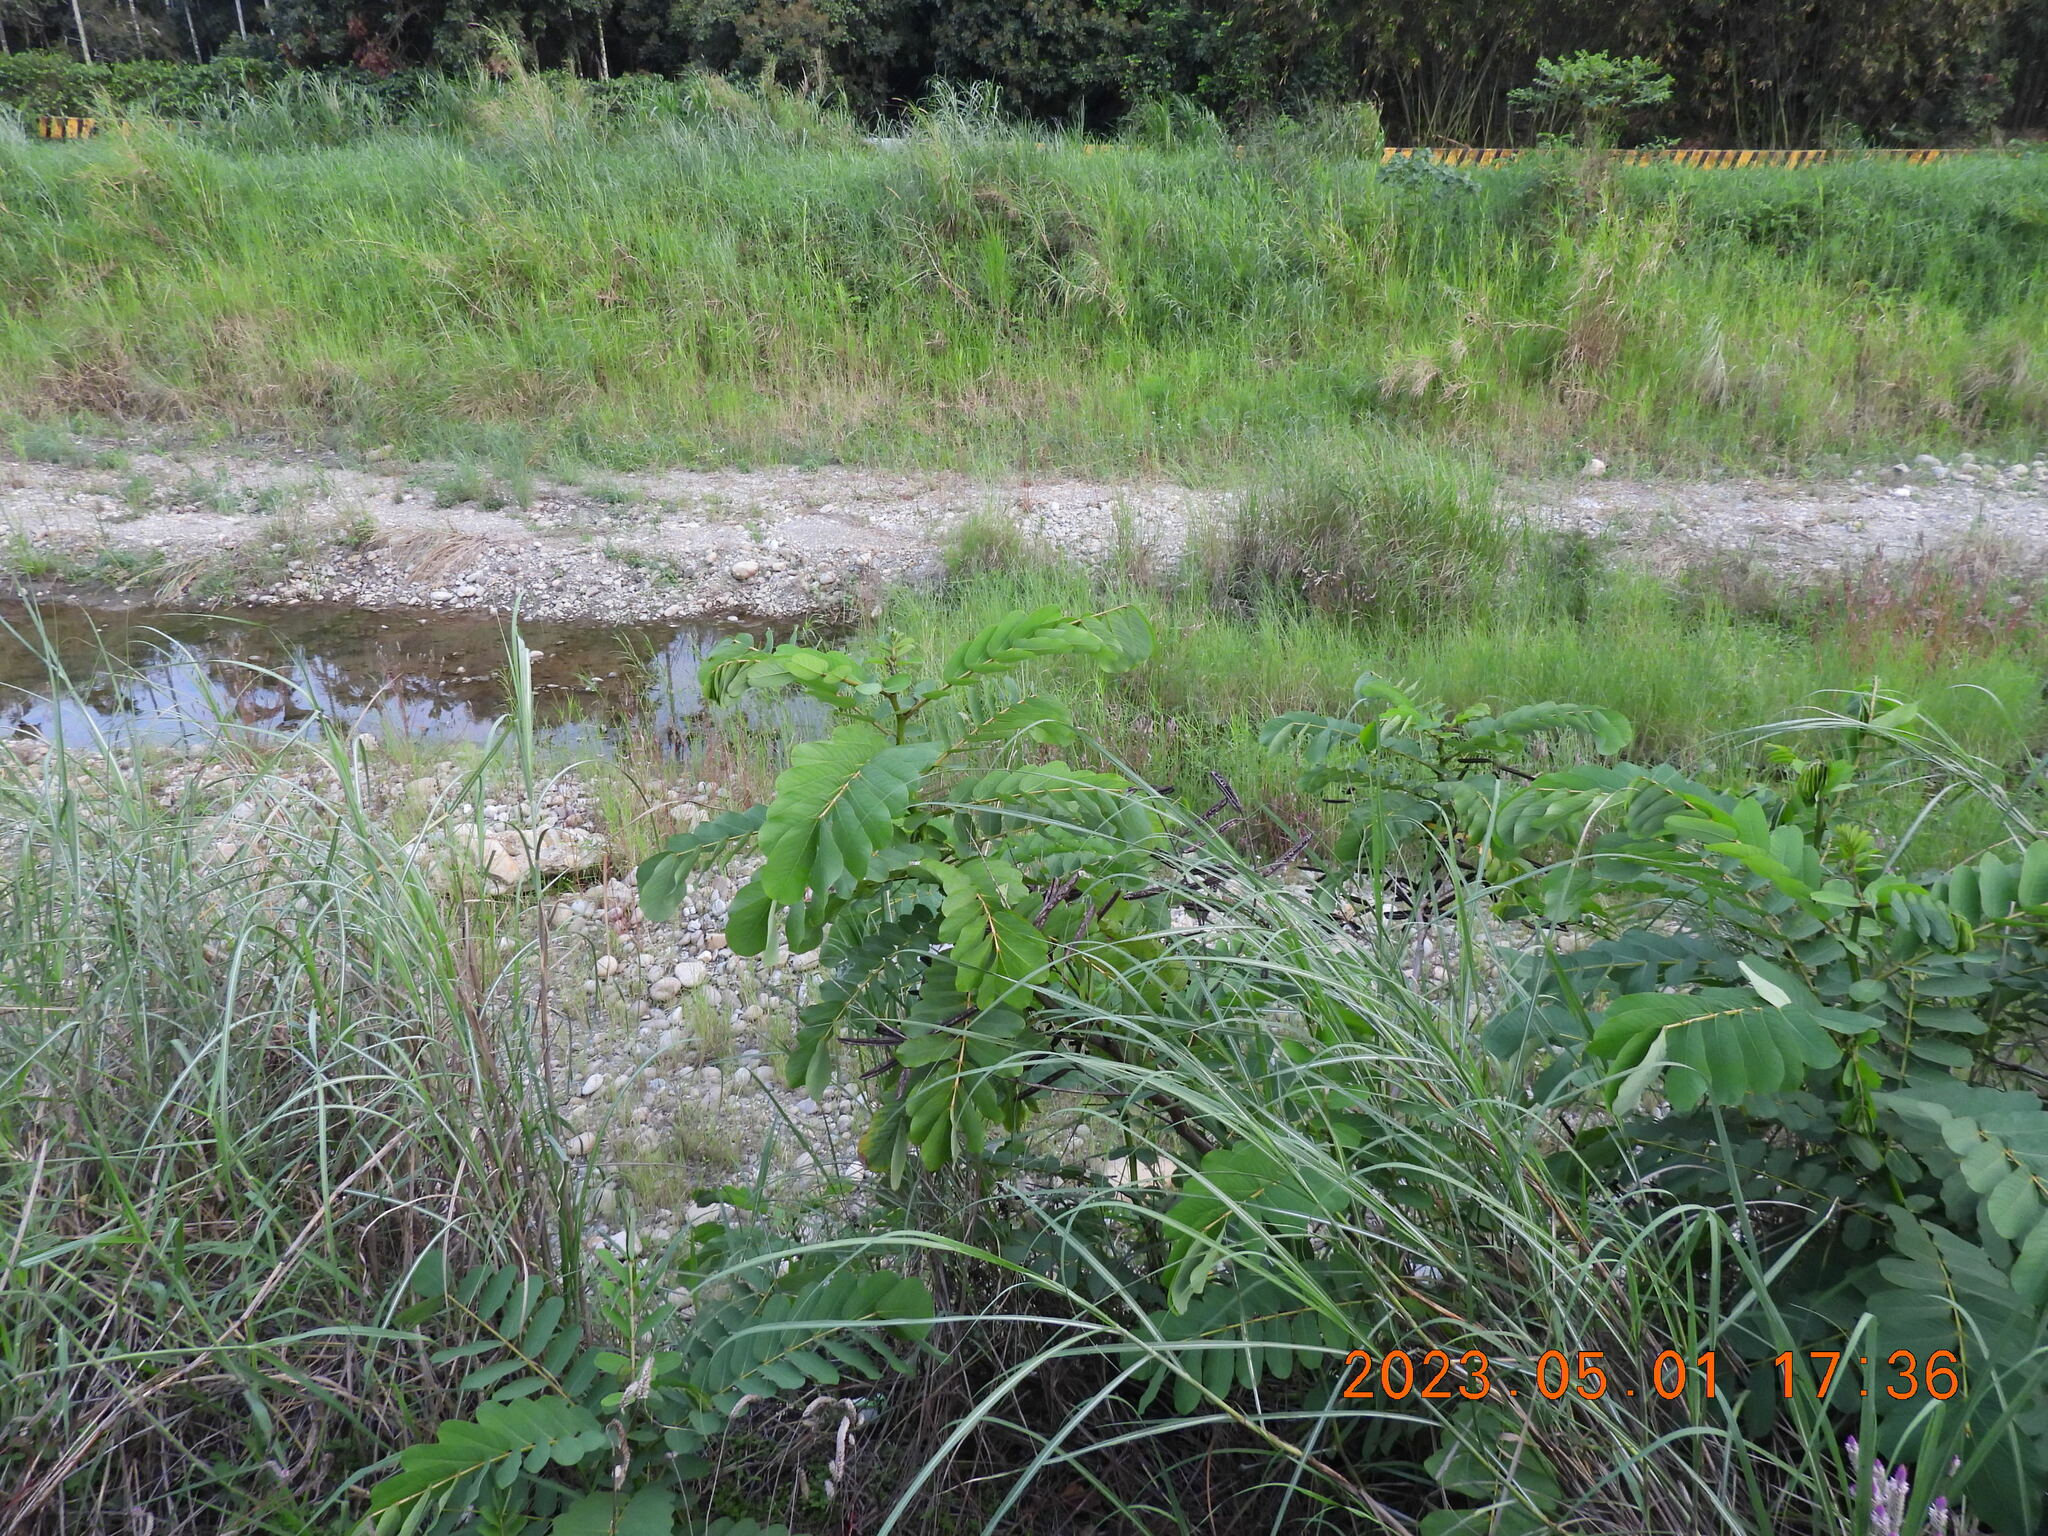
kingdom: Plantae
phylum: Tracheophyta
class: Magnoliopsida
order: Fabales
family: Fabaceae
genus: Senna
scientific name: Senna alata
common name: Emperor's candlesticks
